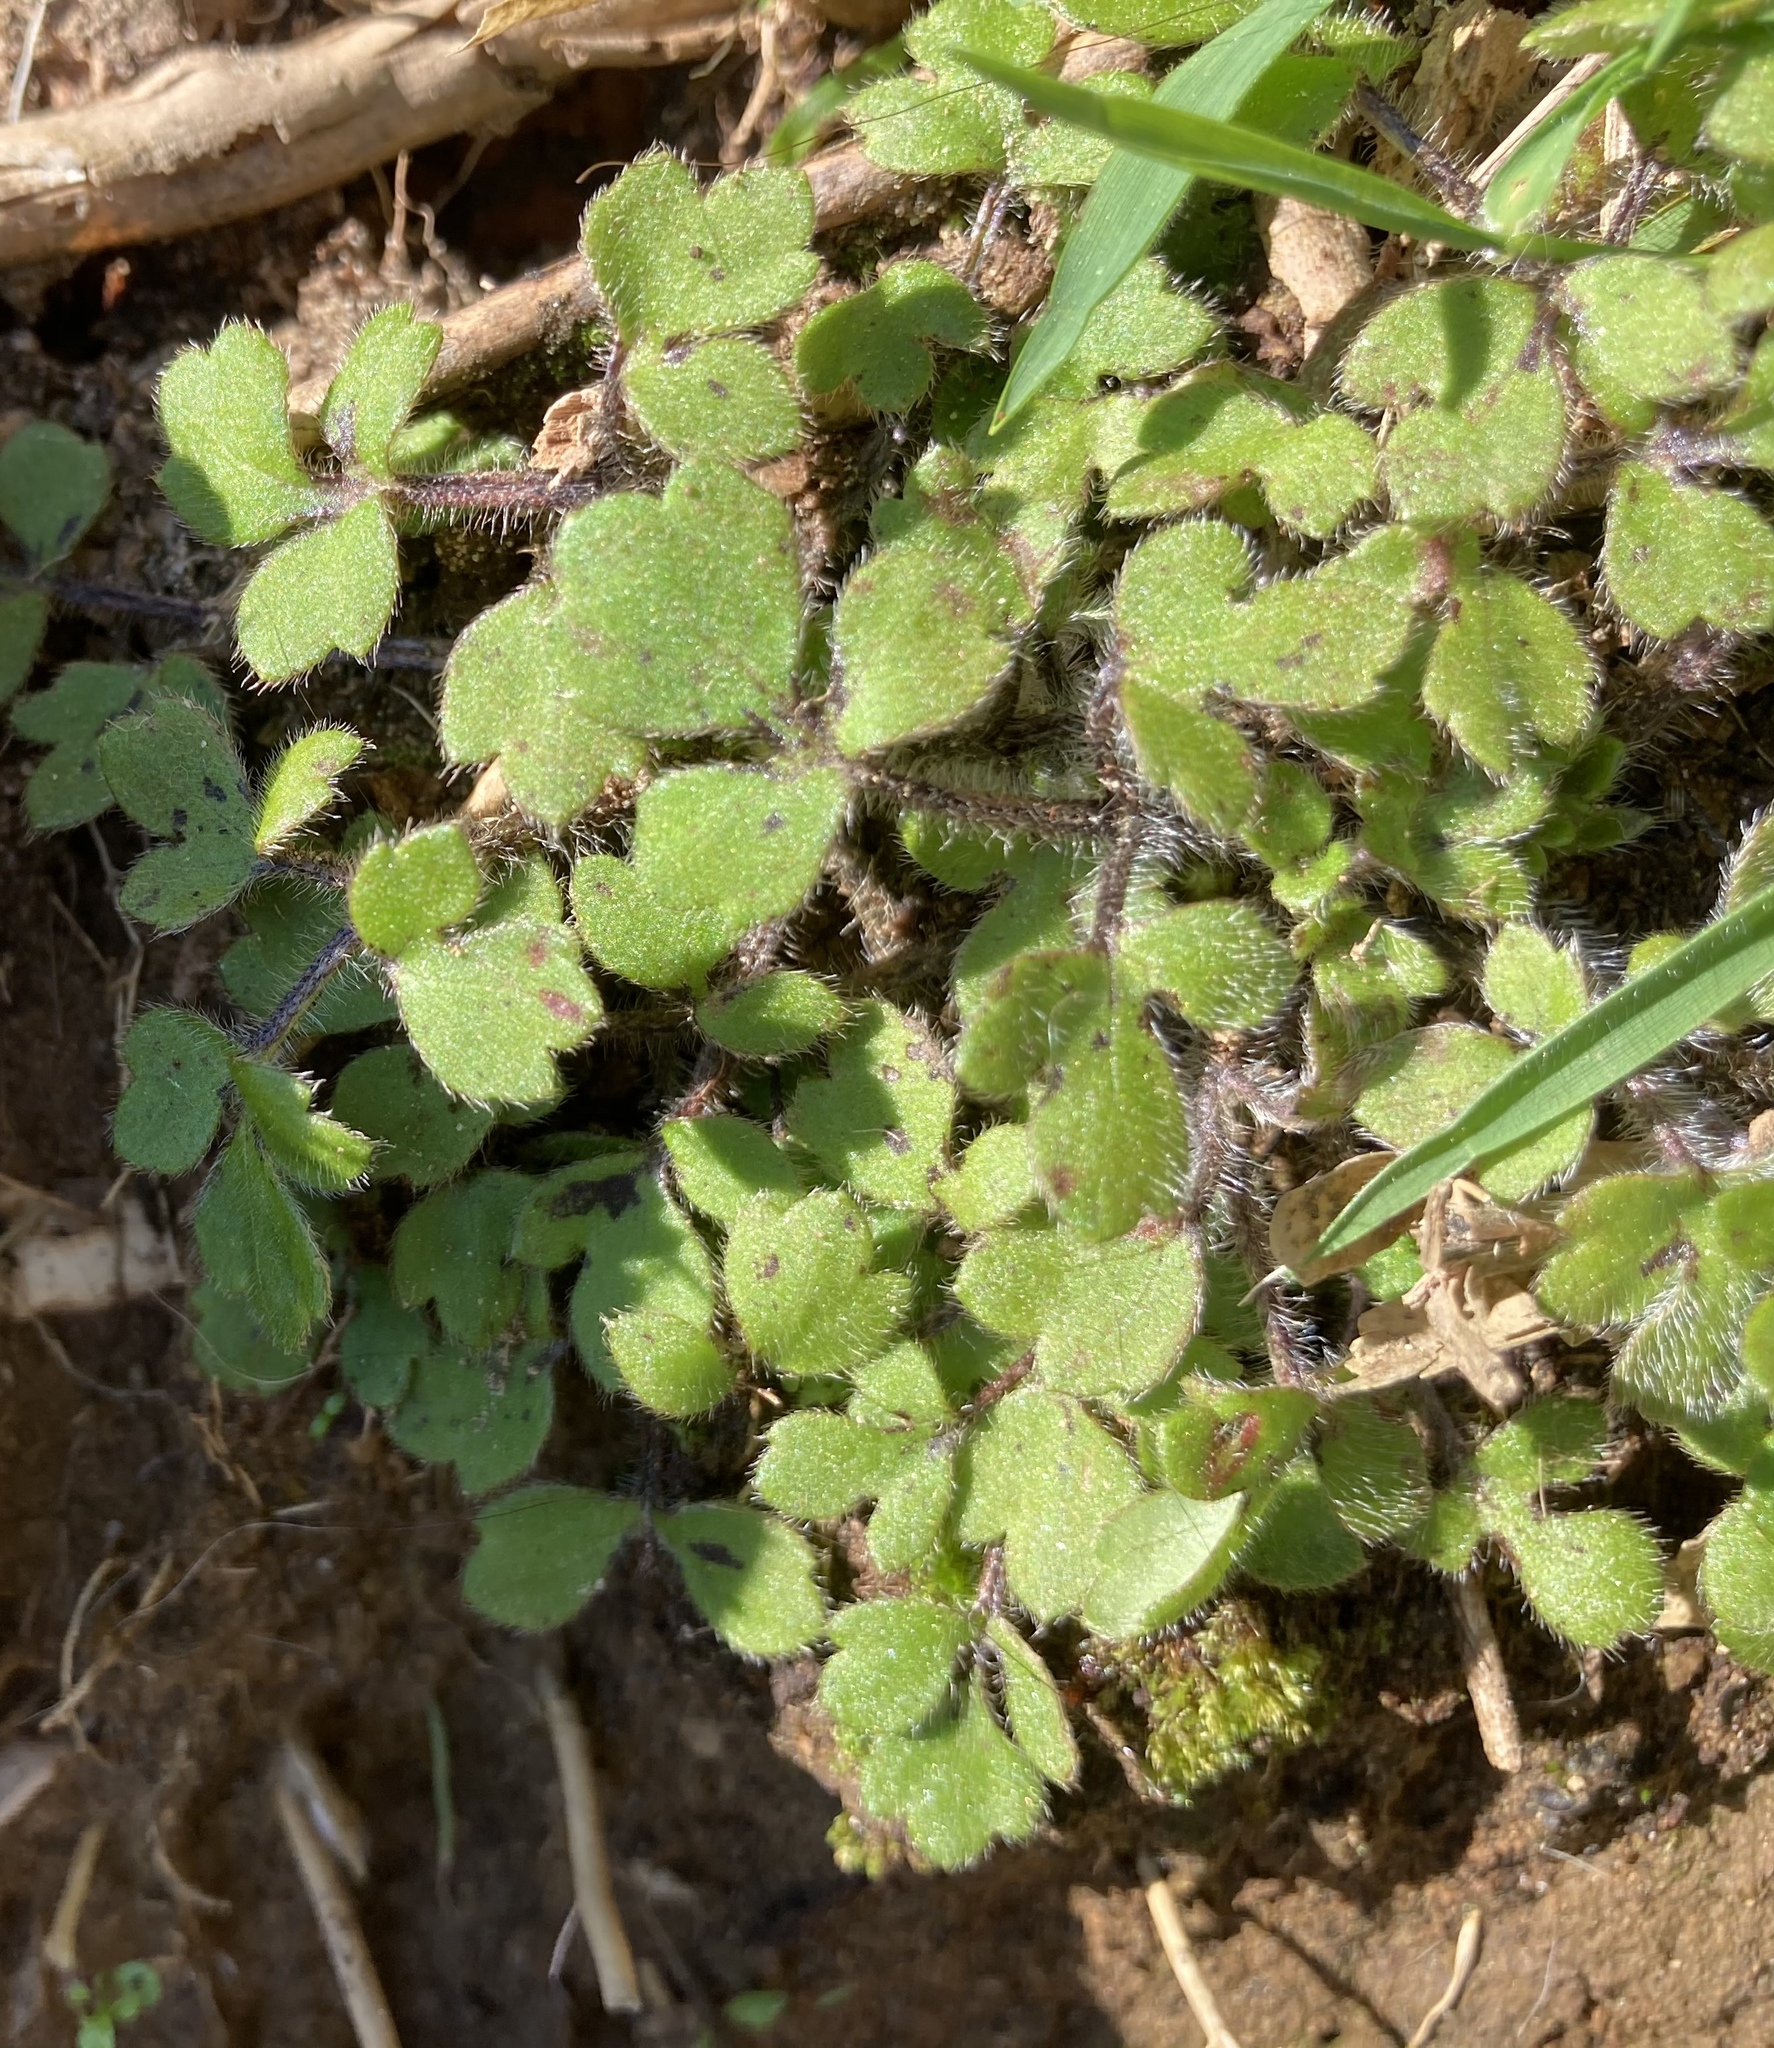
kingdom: Plantae
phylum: Tracheophyta
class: Magnoliopsida
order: Ranunculales
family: Ranunculaceae
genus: Ranunculus
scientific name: Ranunculus reflexus
